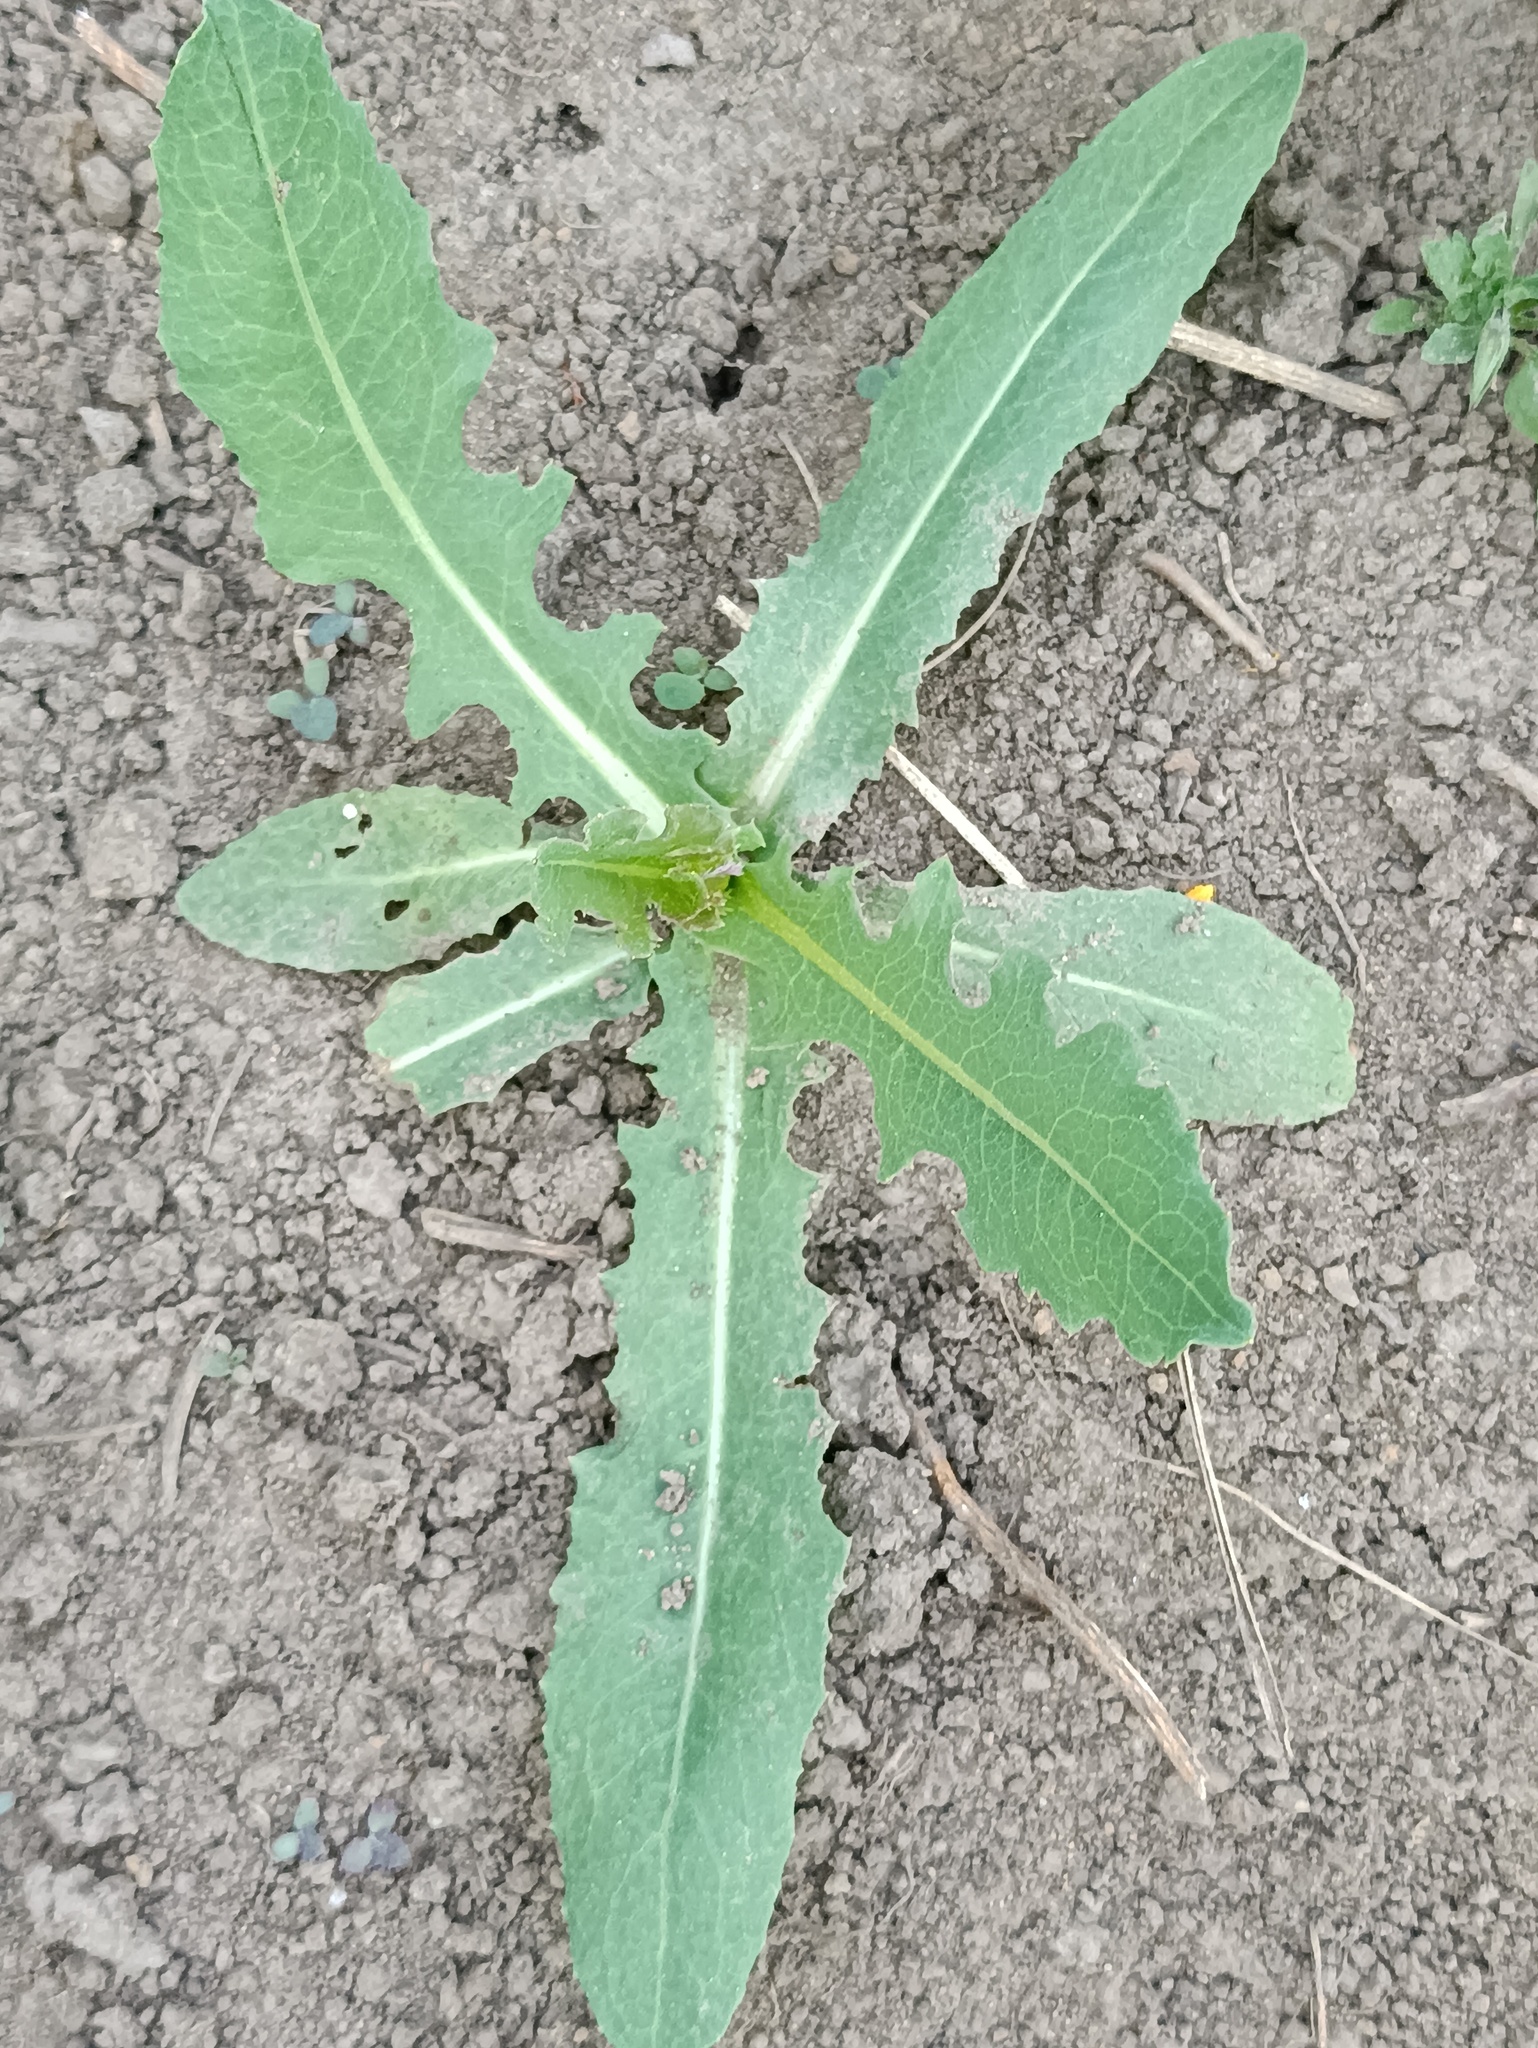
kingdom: Plantae
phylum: Tracheophyta
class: Magnoliopsida
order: Asterales
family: Asteraceae
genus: Lactuca
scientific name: Lactuca serriola
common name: Prickly lettuce
